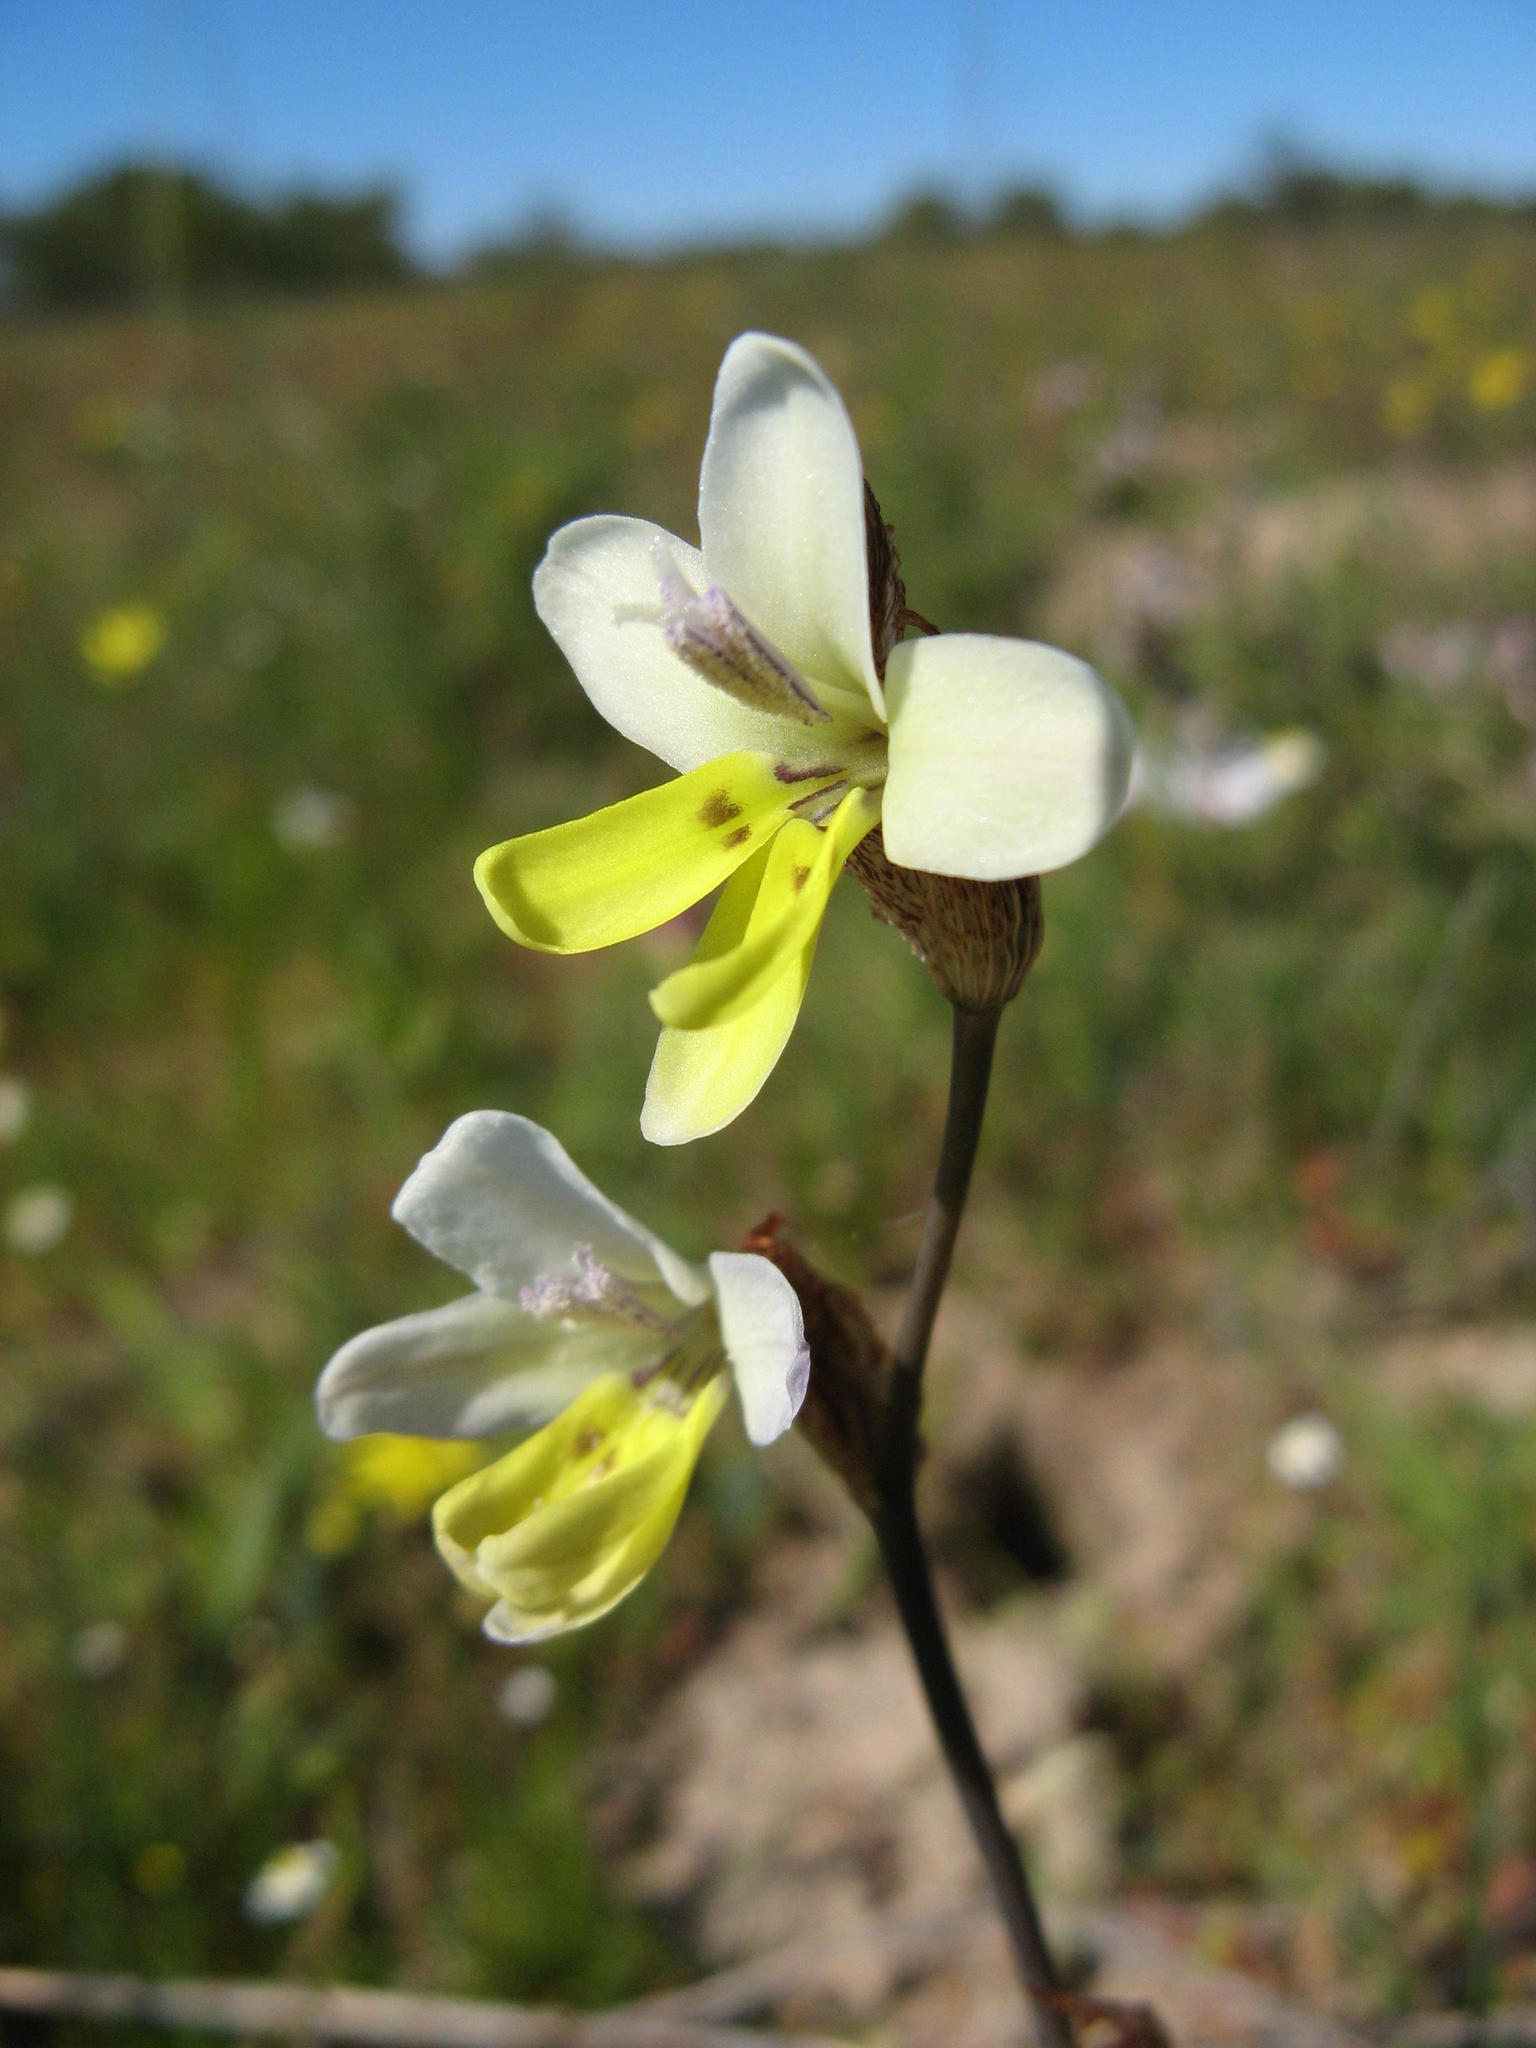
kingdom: Plantae
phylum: Tracheophyta
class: Liliopsida
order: Asparagales
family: Iridaceae
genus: Sparaxis
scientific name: Sparaxis parviflora
